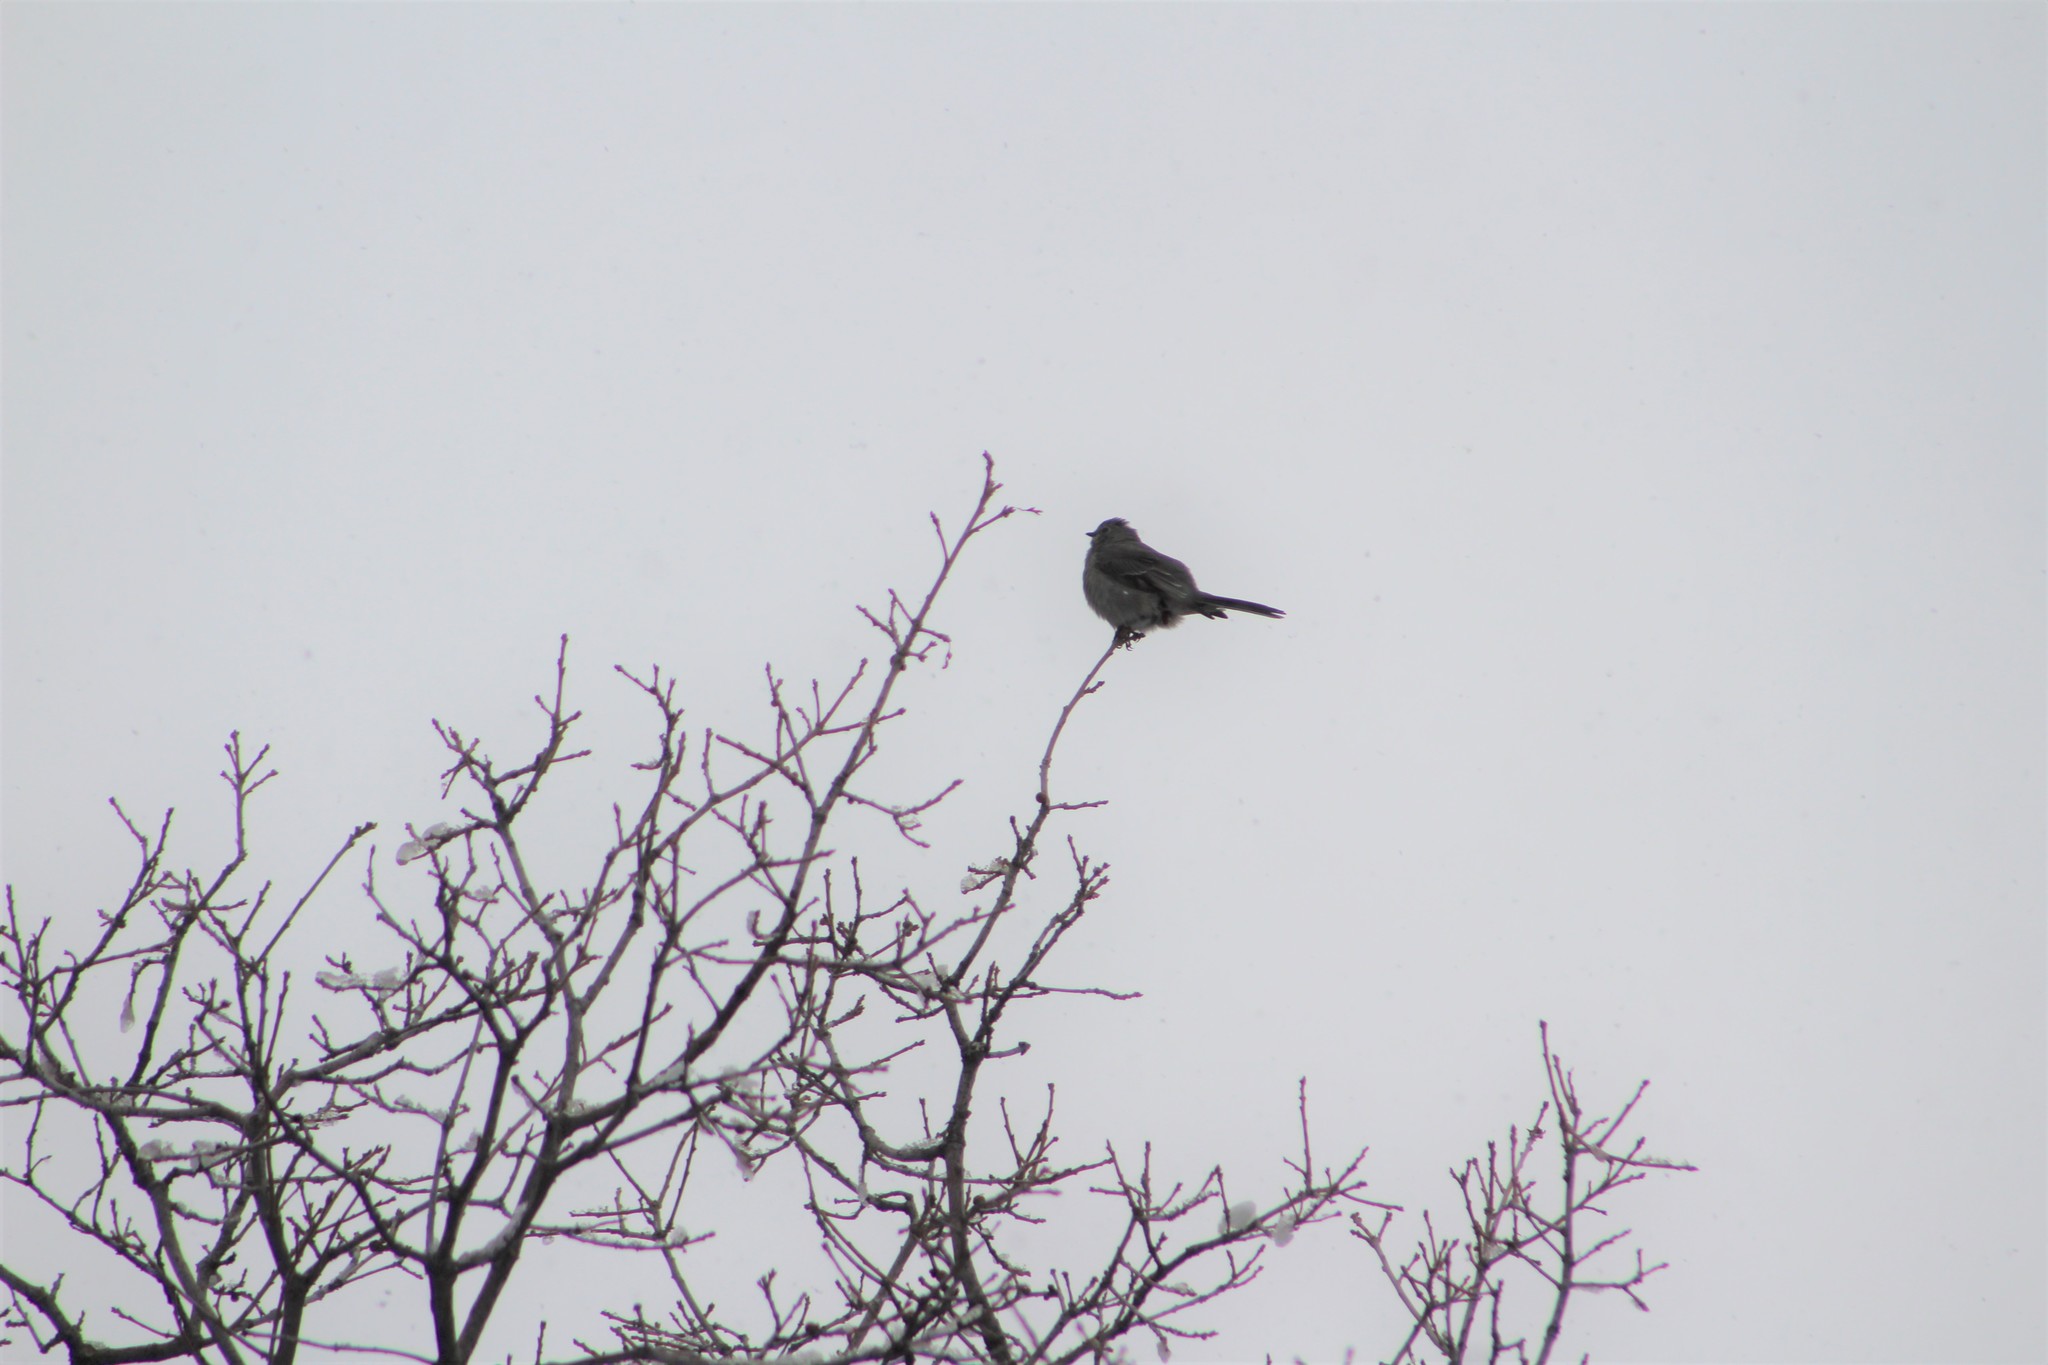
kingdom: Animalia
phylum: Chordata
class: Aves
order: Passeriformes
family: Turdidae
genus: Myadestes
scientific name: Myadestes townsendi
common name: Townsend's solitaire
